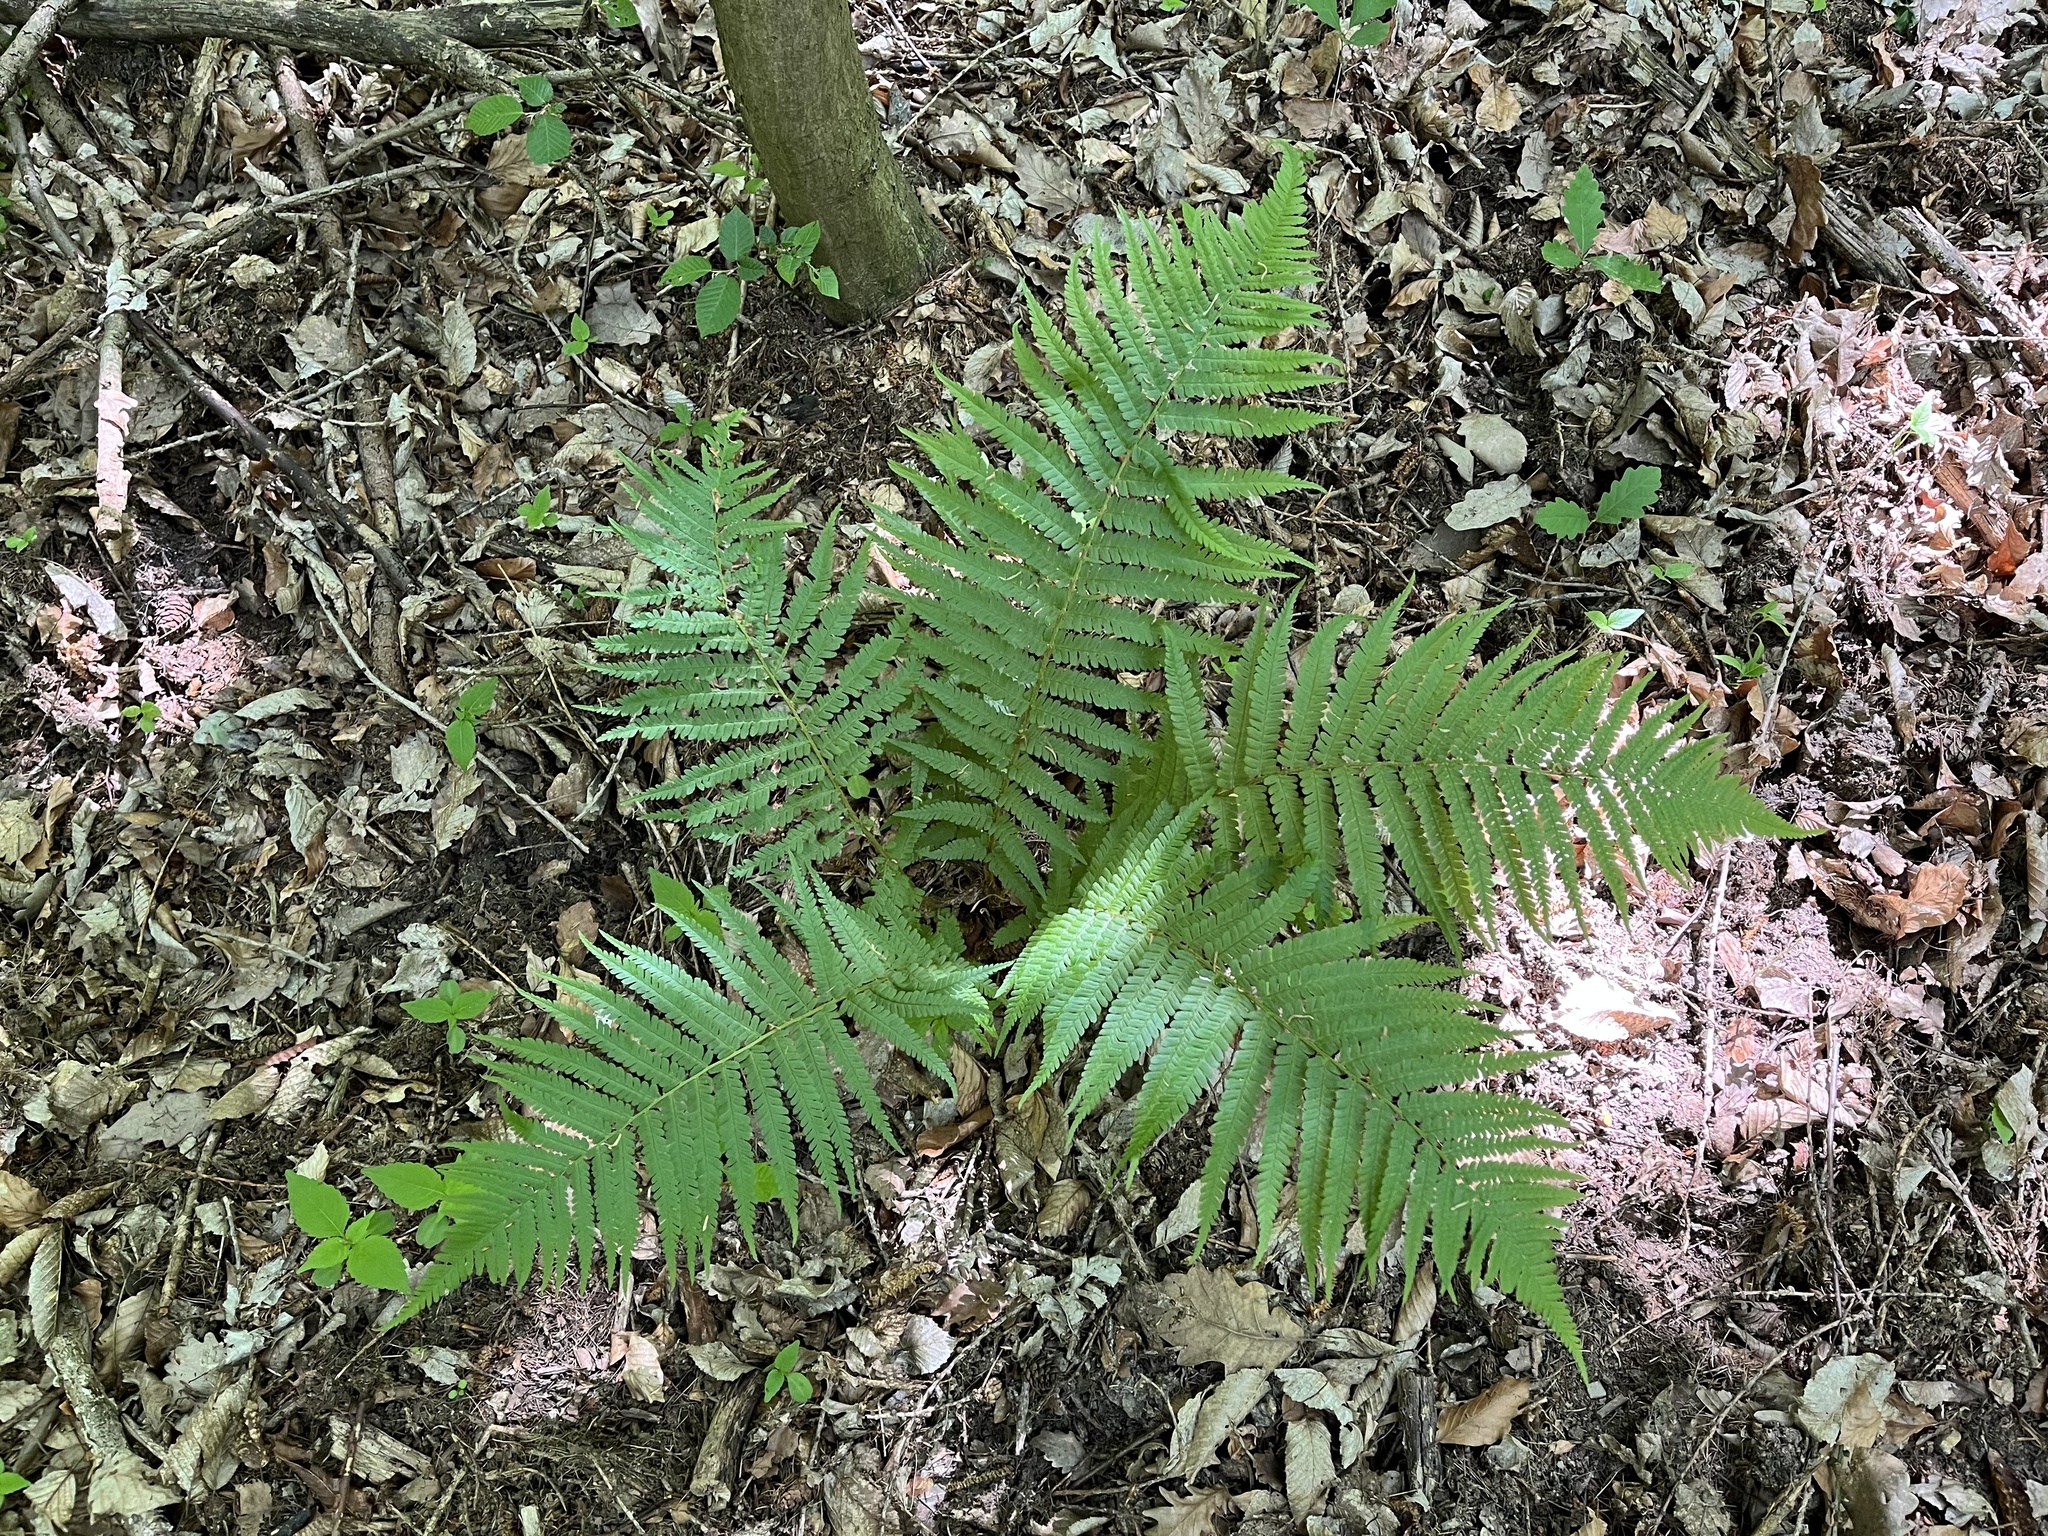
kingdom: Plantae
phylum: Tracheophyta
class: Polypodiopsida
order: Polypodiales
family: Dryopteridaceae
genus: Dryopteris
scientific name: Dryopteris filix-mas
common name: Male fern
